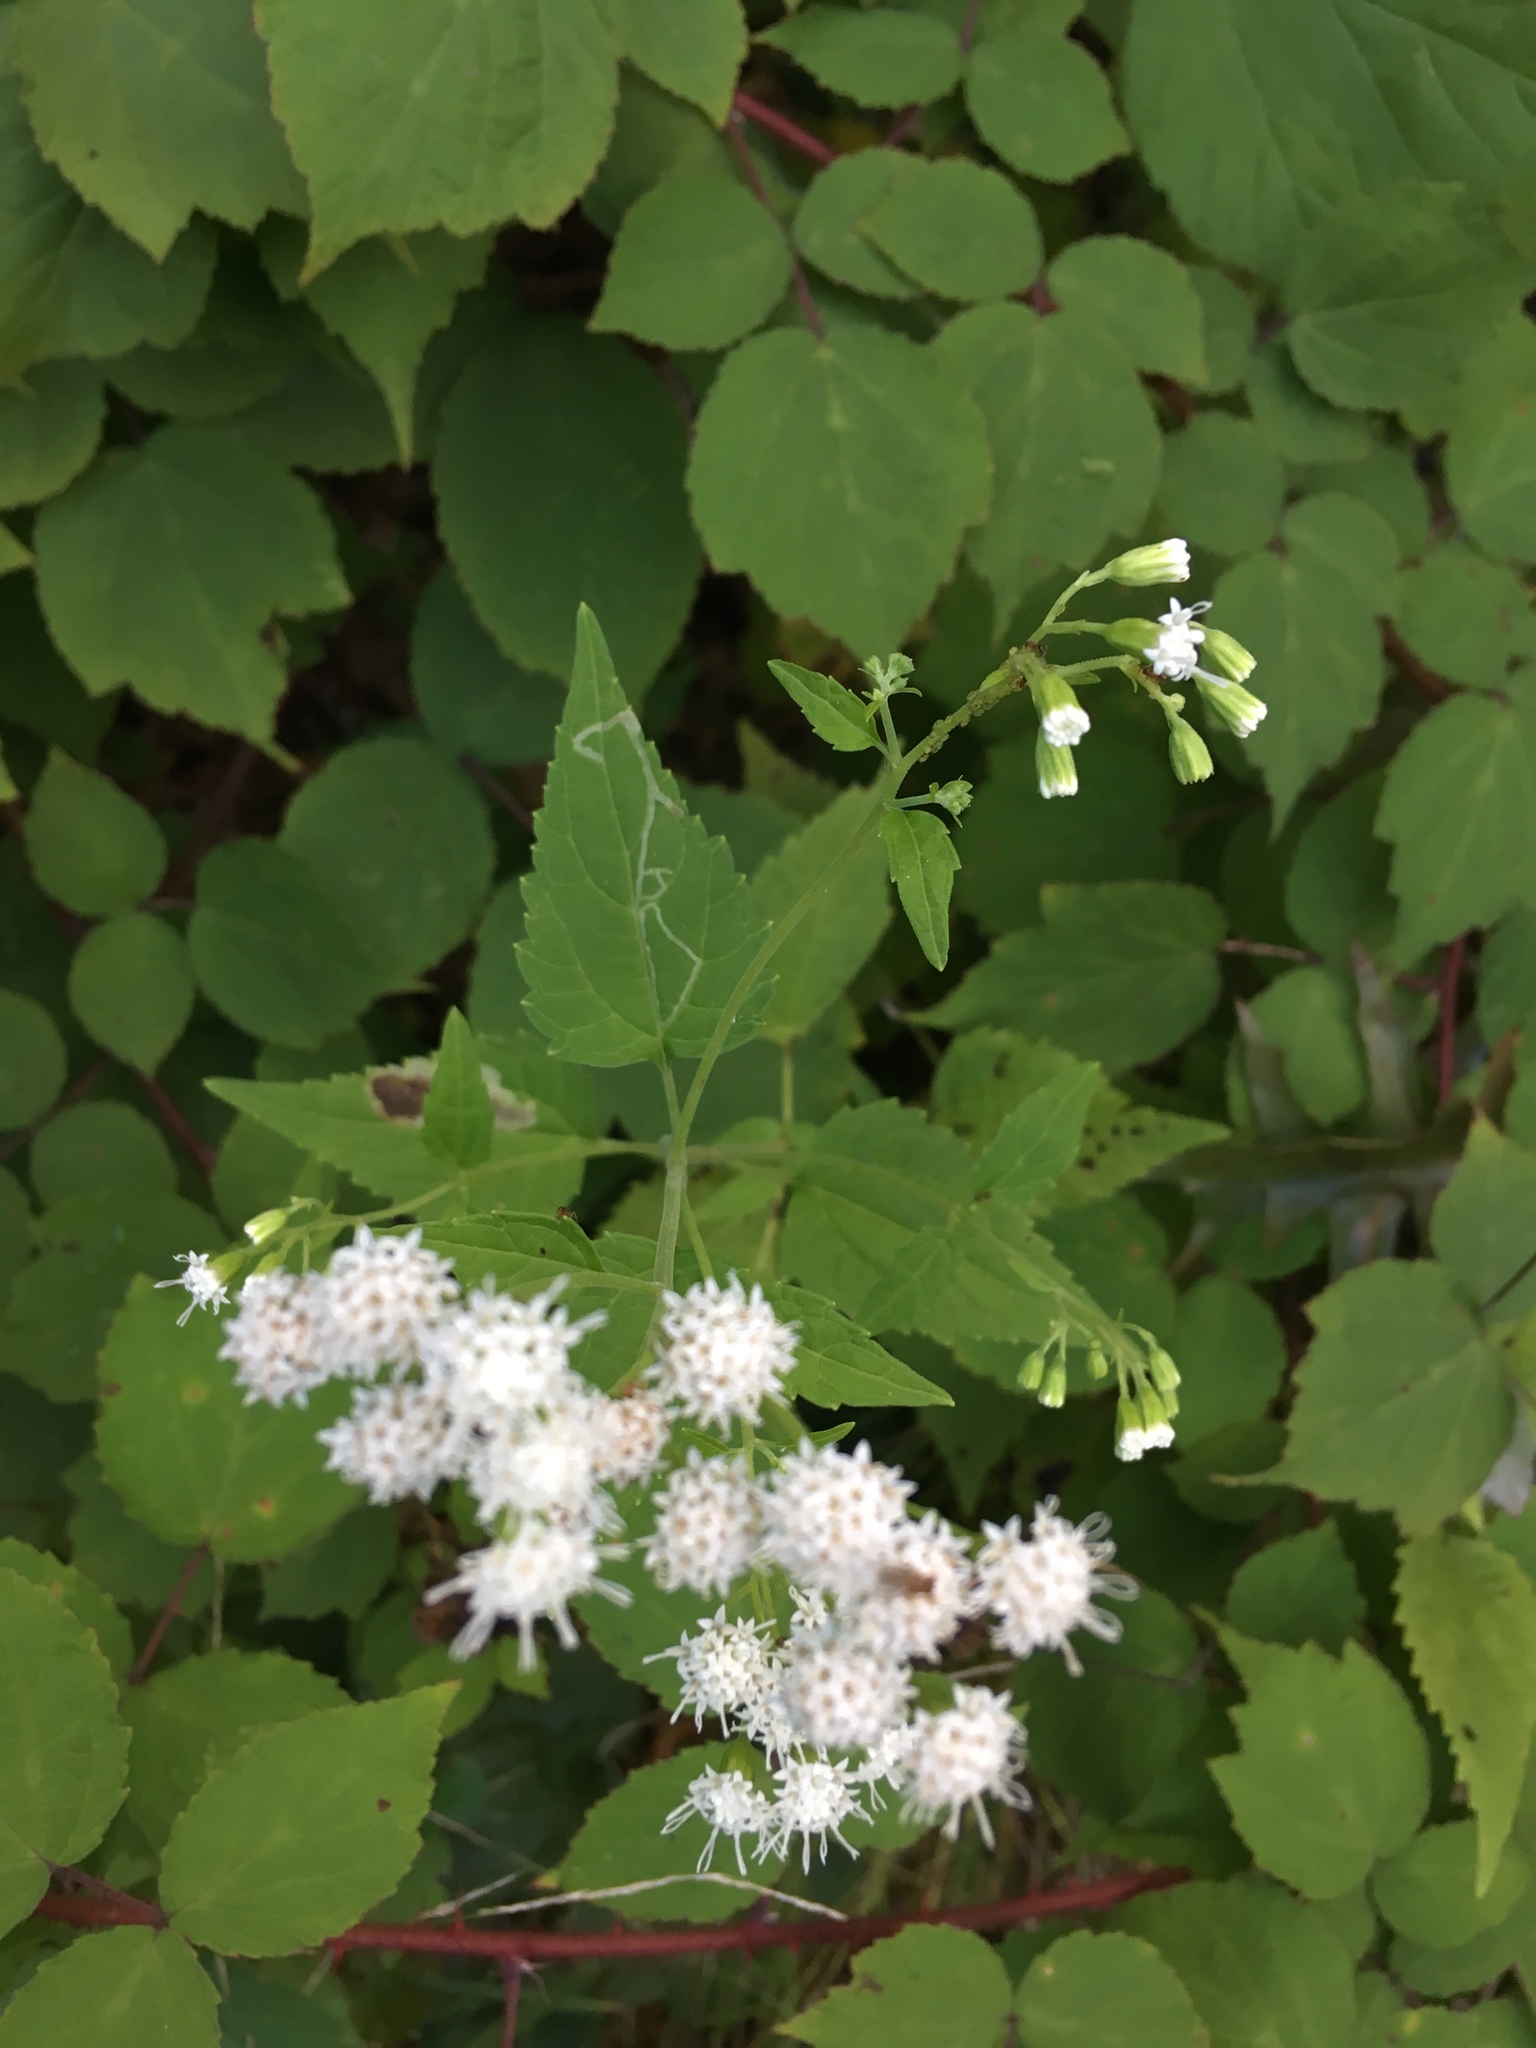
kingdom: Plantae
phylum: Tracheophyta
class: Magnoliopsida
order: Asterales
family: Asteraceae
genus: Ageratina
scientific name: Ageratina altissima
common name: White snakeroot
